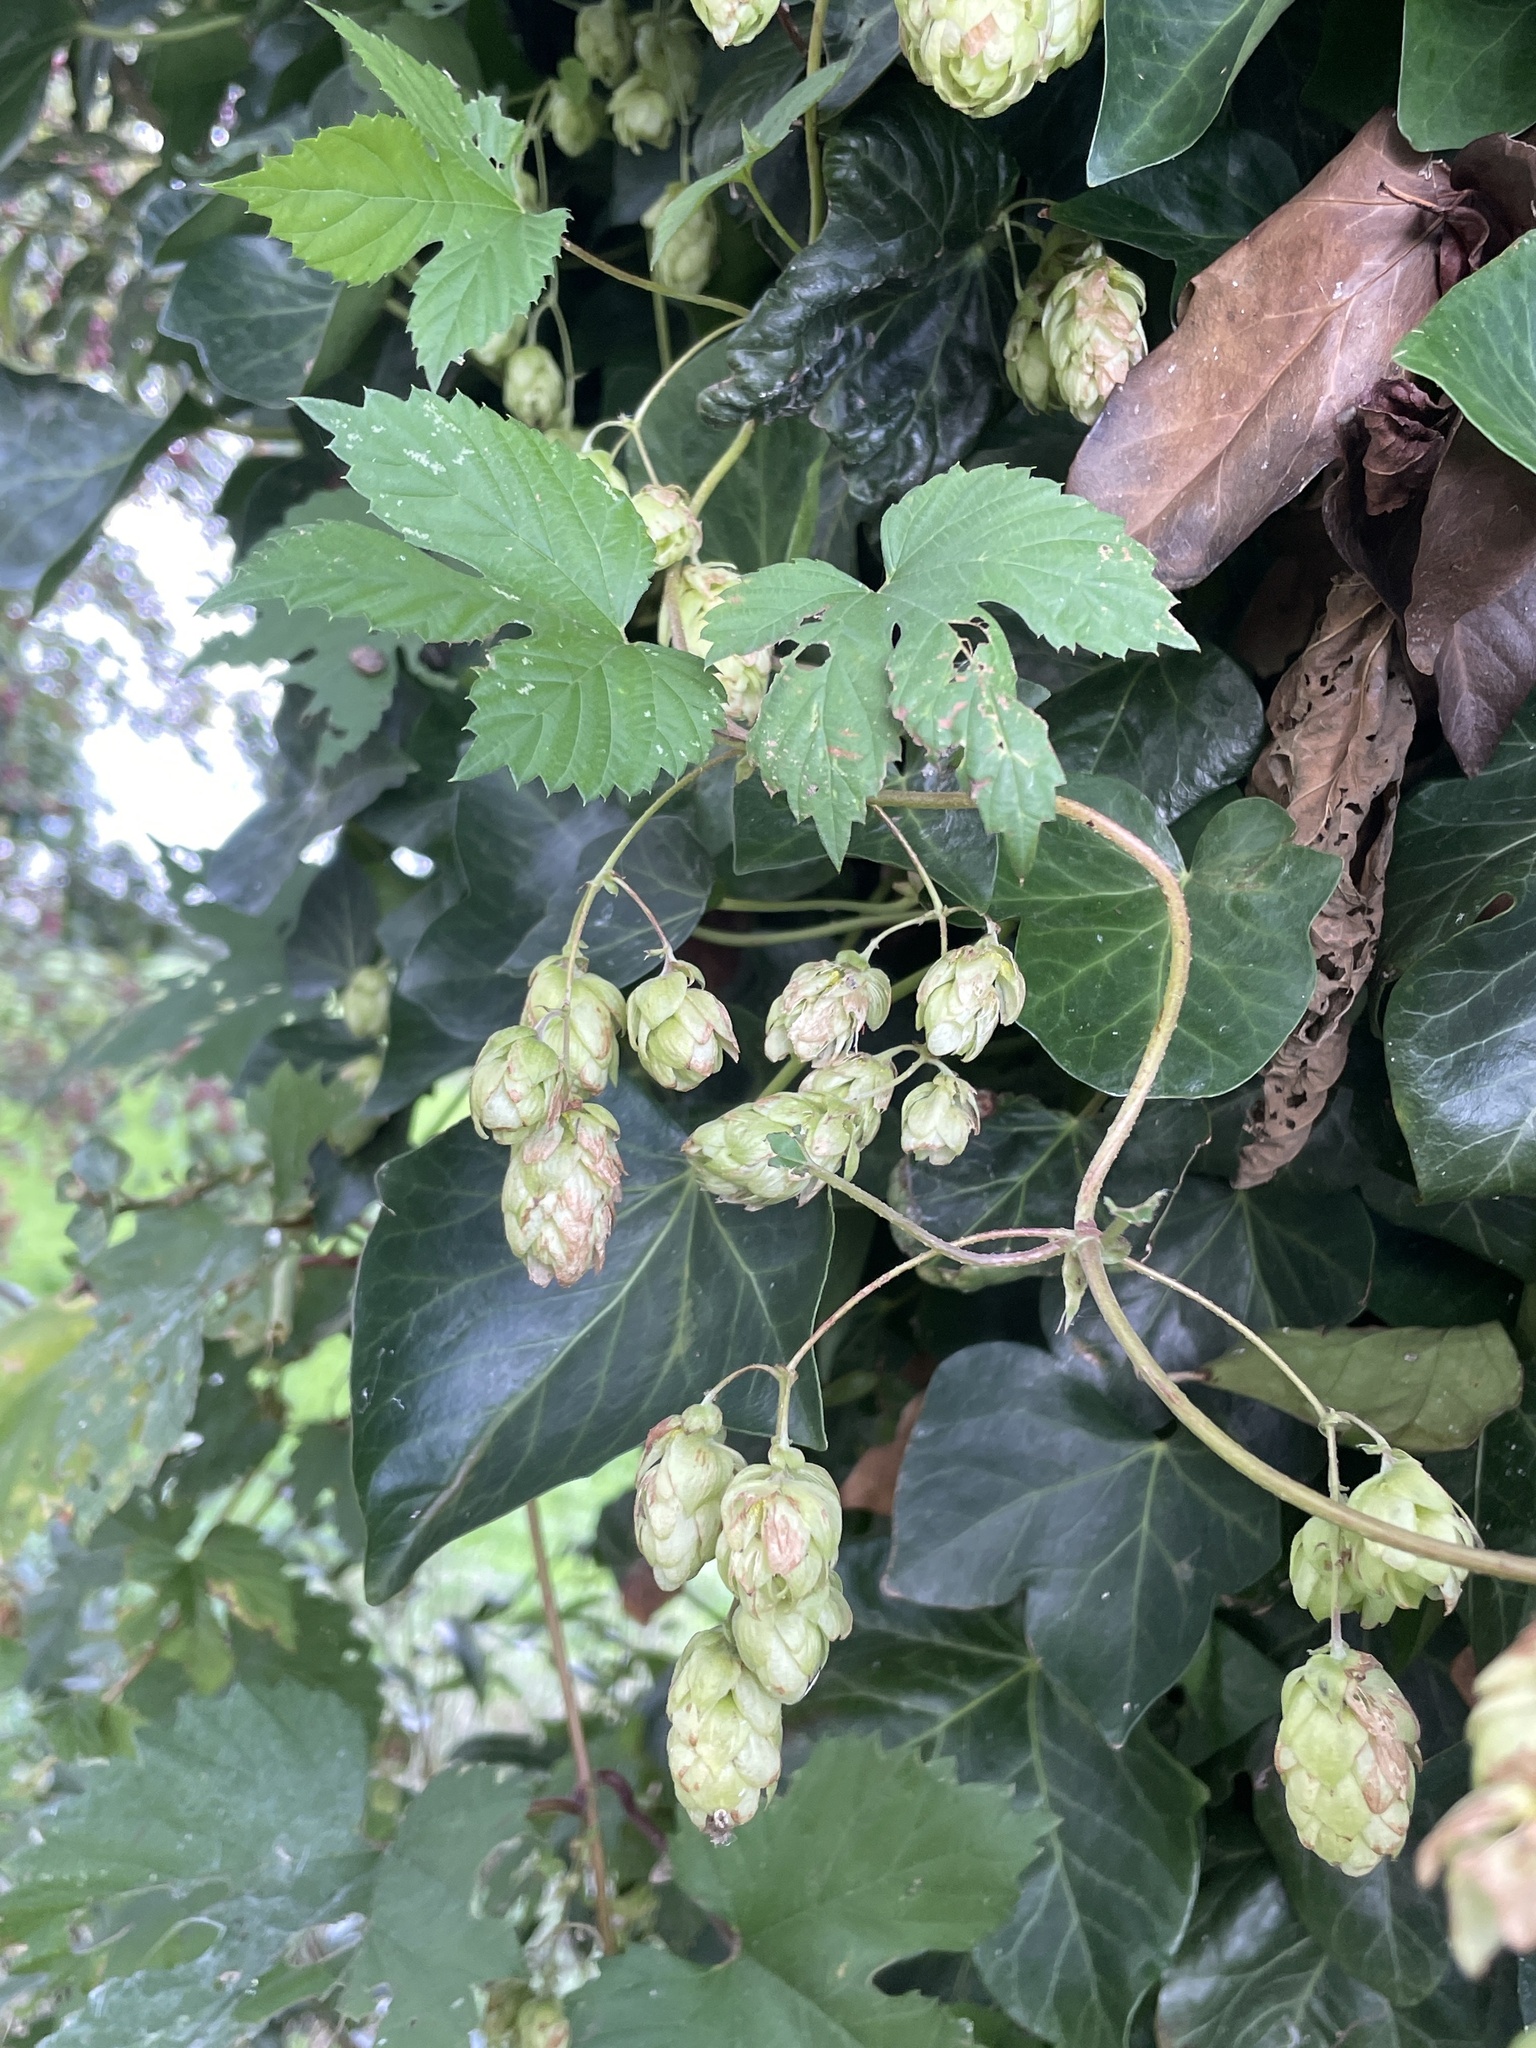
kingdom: Plantae
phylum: Tracheophyta
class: Magnoliopsida
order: Rosales
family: Cannabaceae
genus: Humulus
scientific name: Humulus lupulus
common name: Hop
